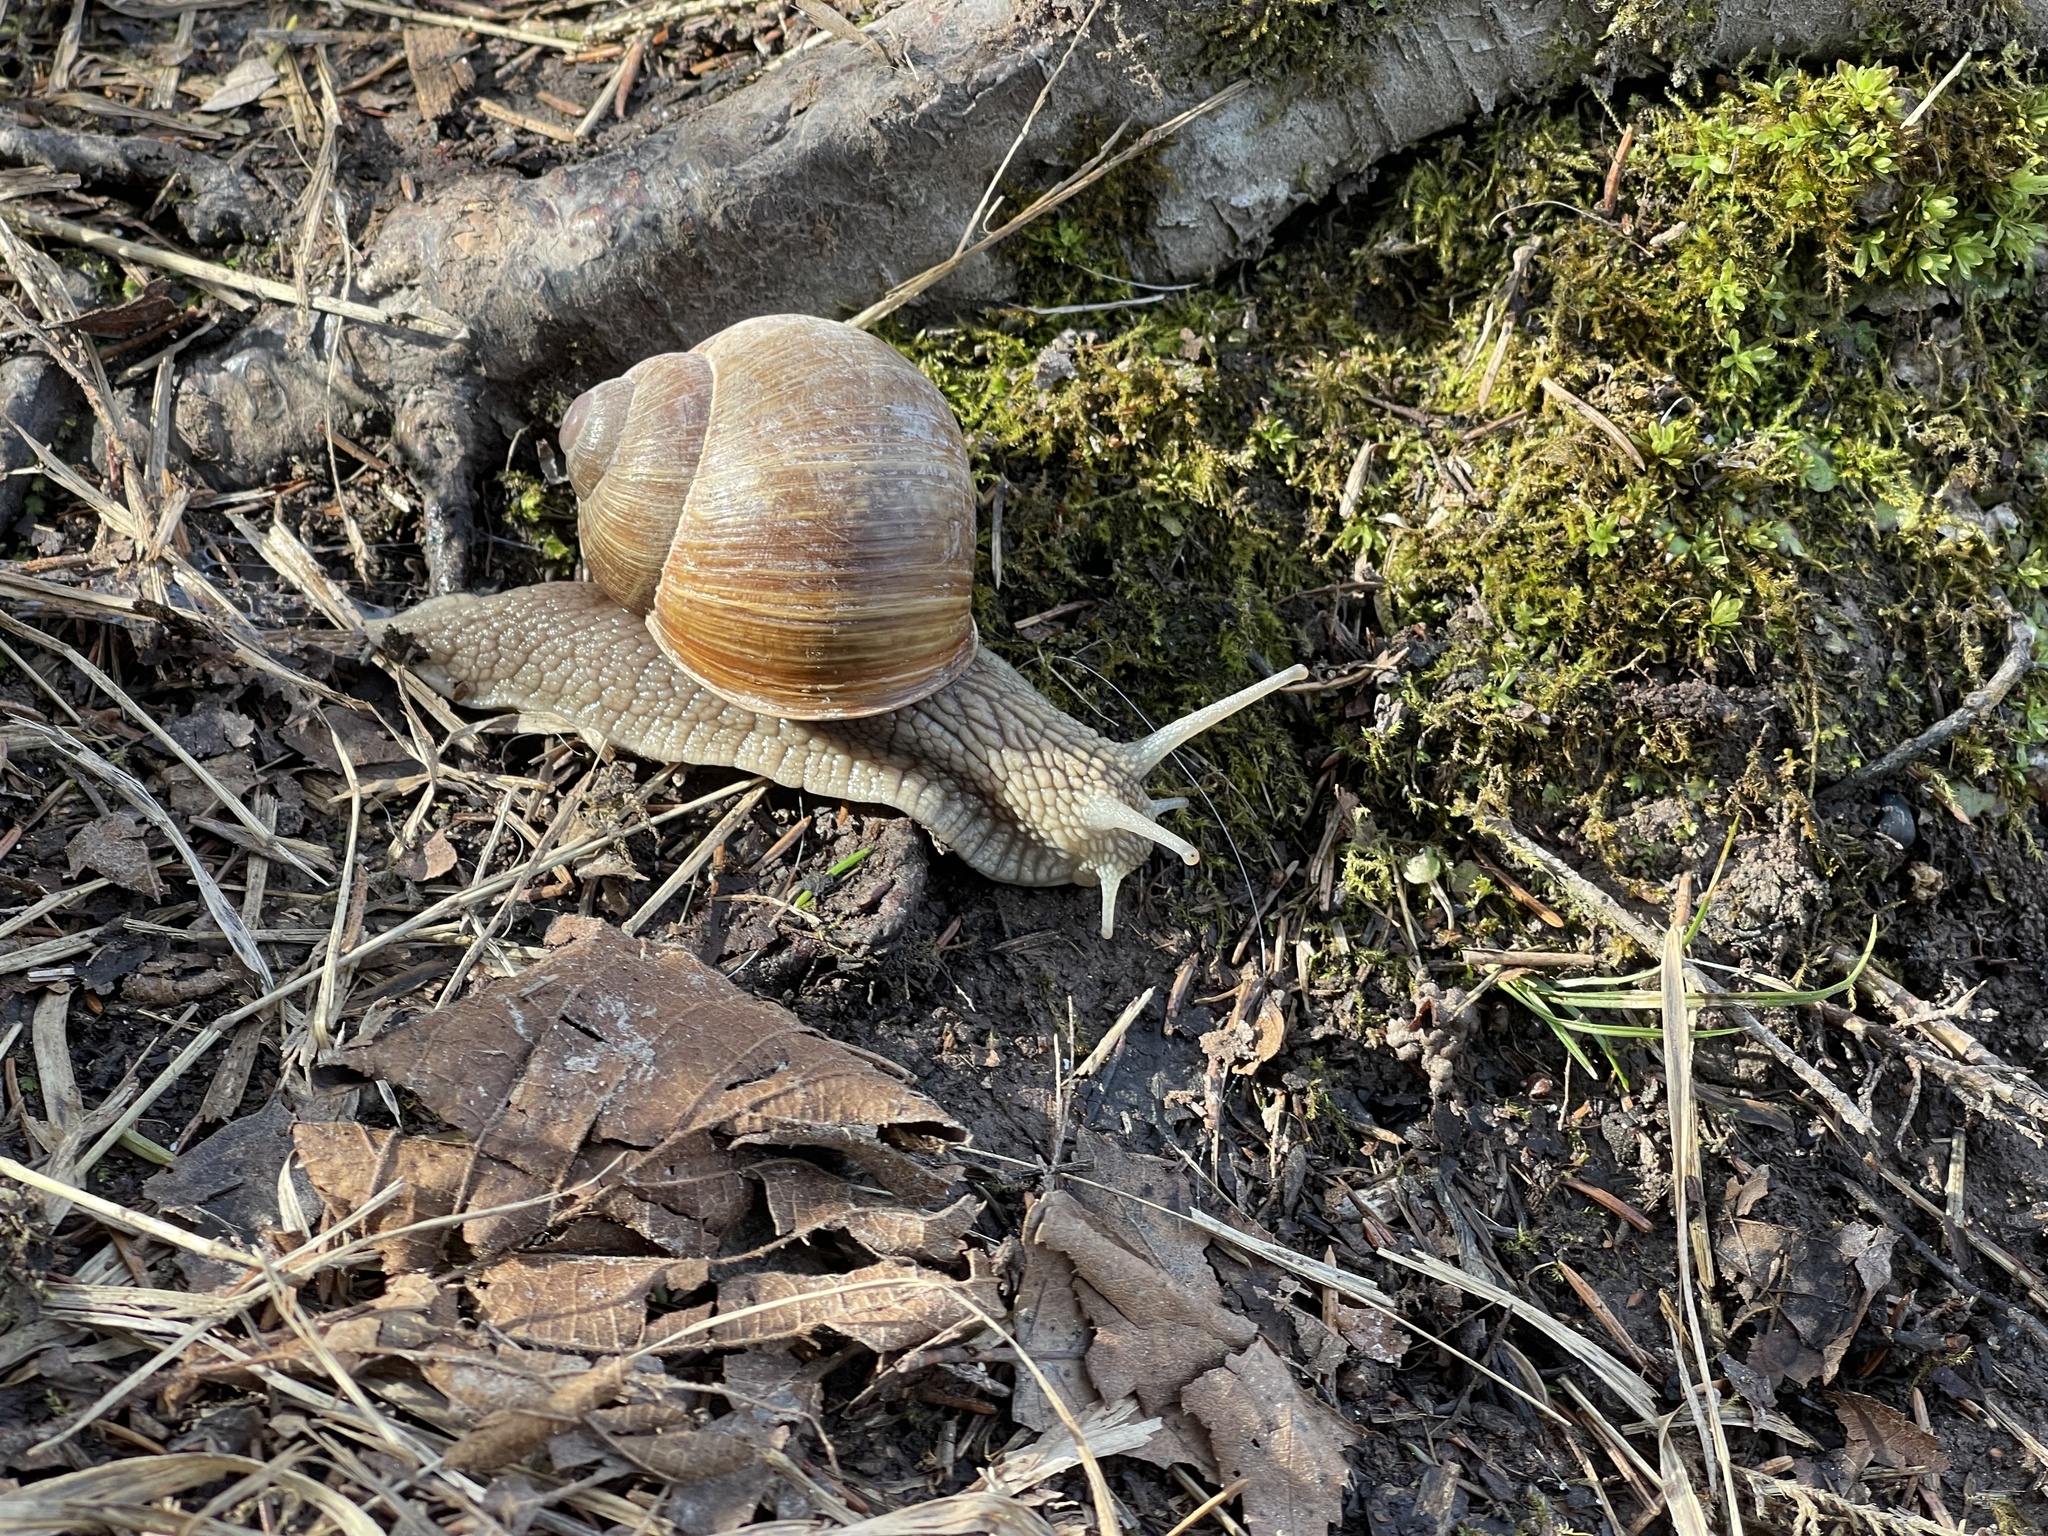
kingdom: Animalia
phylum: Mollusca
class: Gastropoda
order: Stylommatophora
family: Helicidae
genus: Helix
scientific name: Helix pomatia
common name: Roman snail
